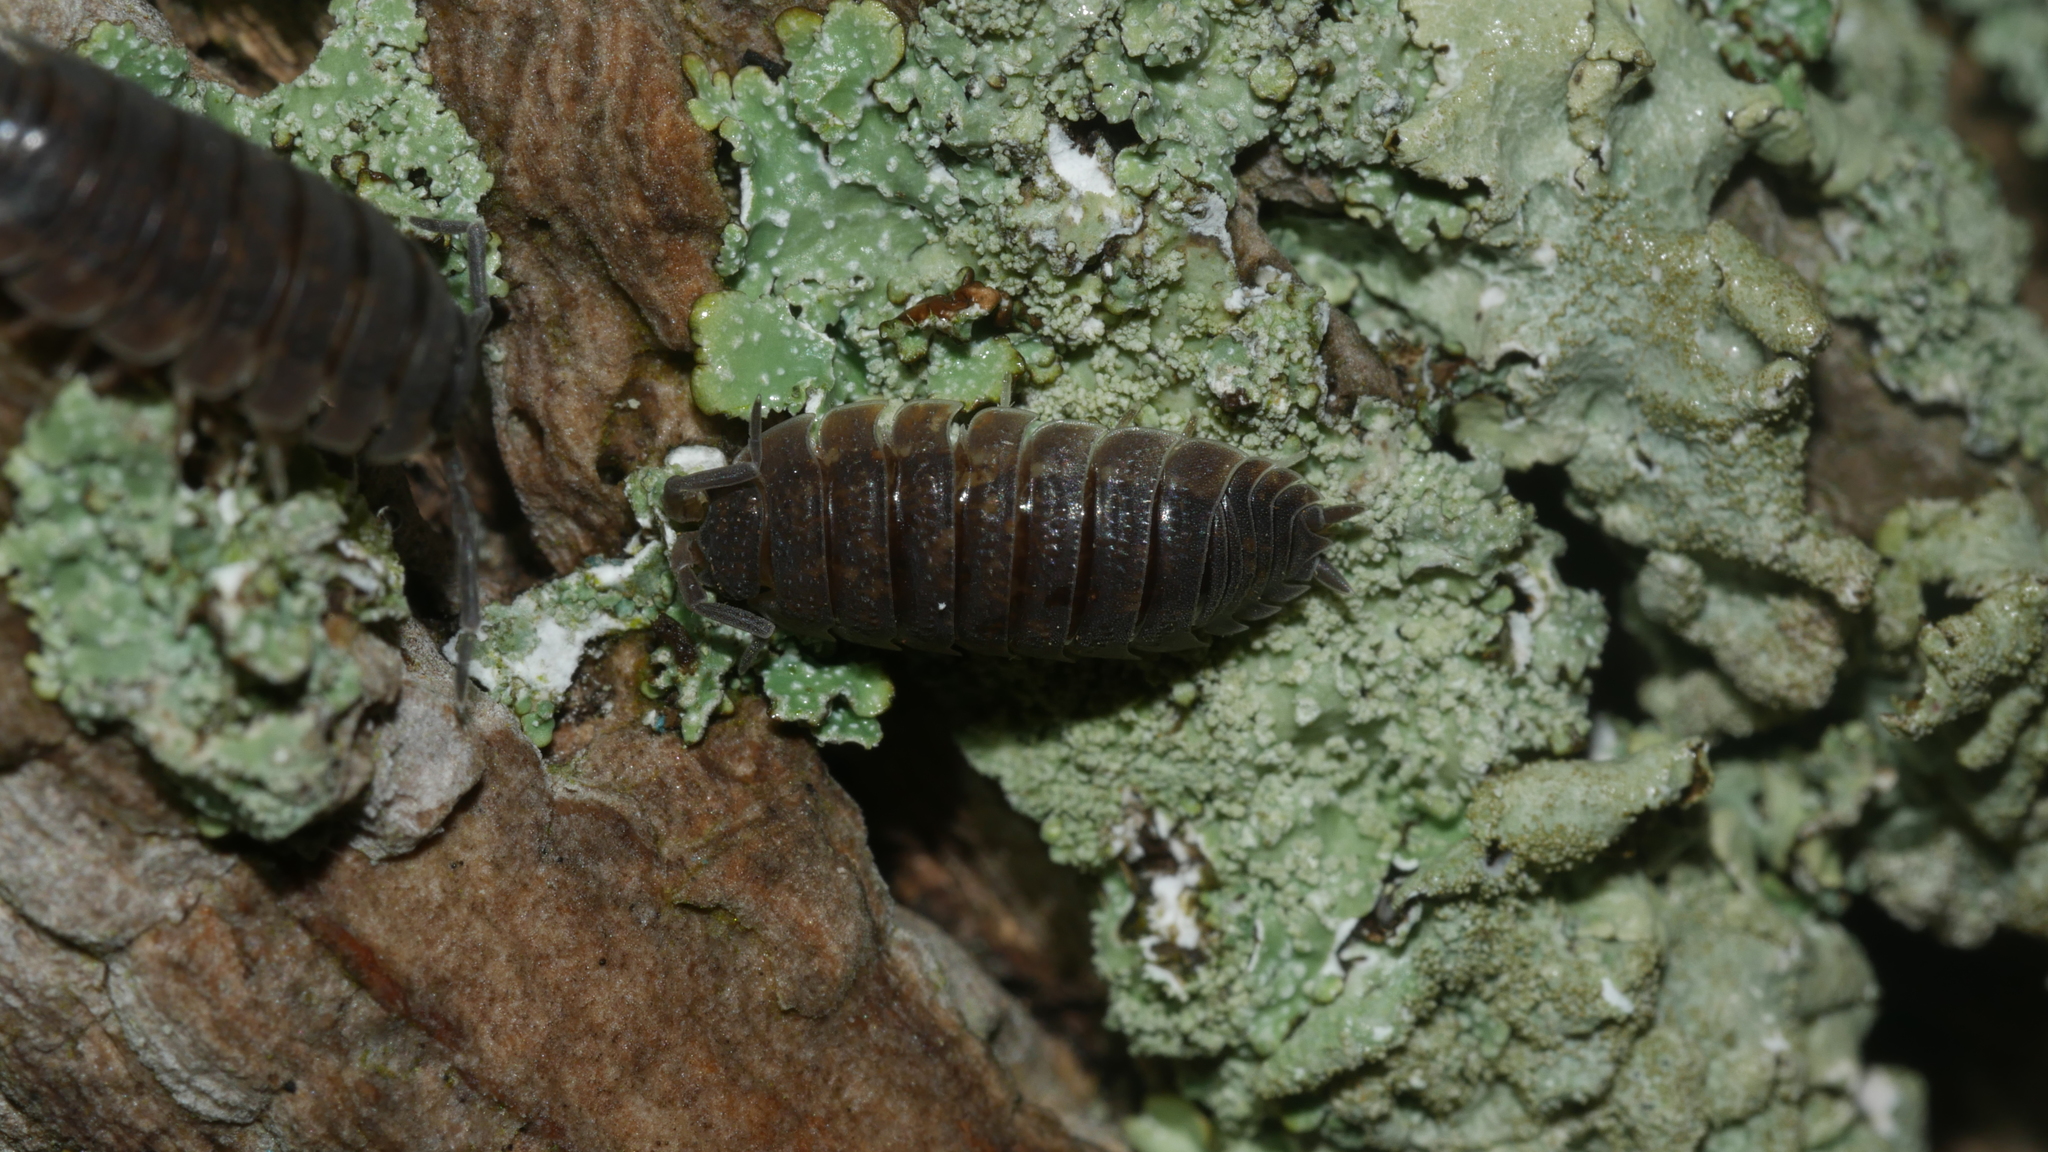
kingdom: Animalia
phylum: Arthropoda
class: Malacostraca
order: Isopoda
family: Porcellionidae
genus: Porcellio
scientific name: Porcellio scaber
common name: Common rough woodlouse
